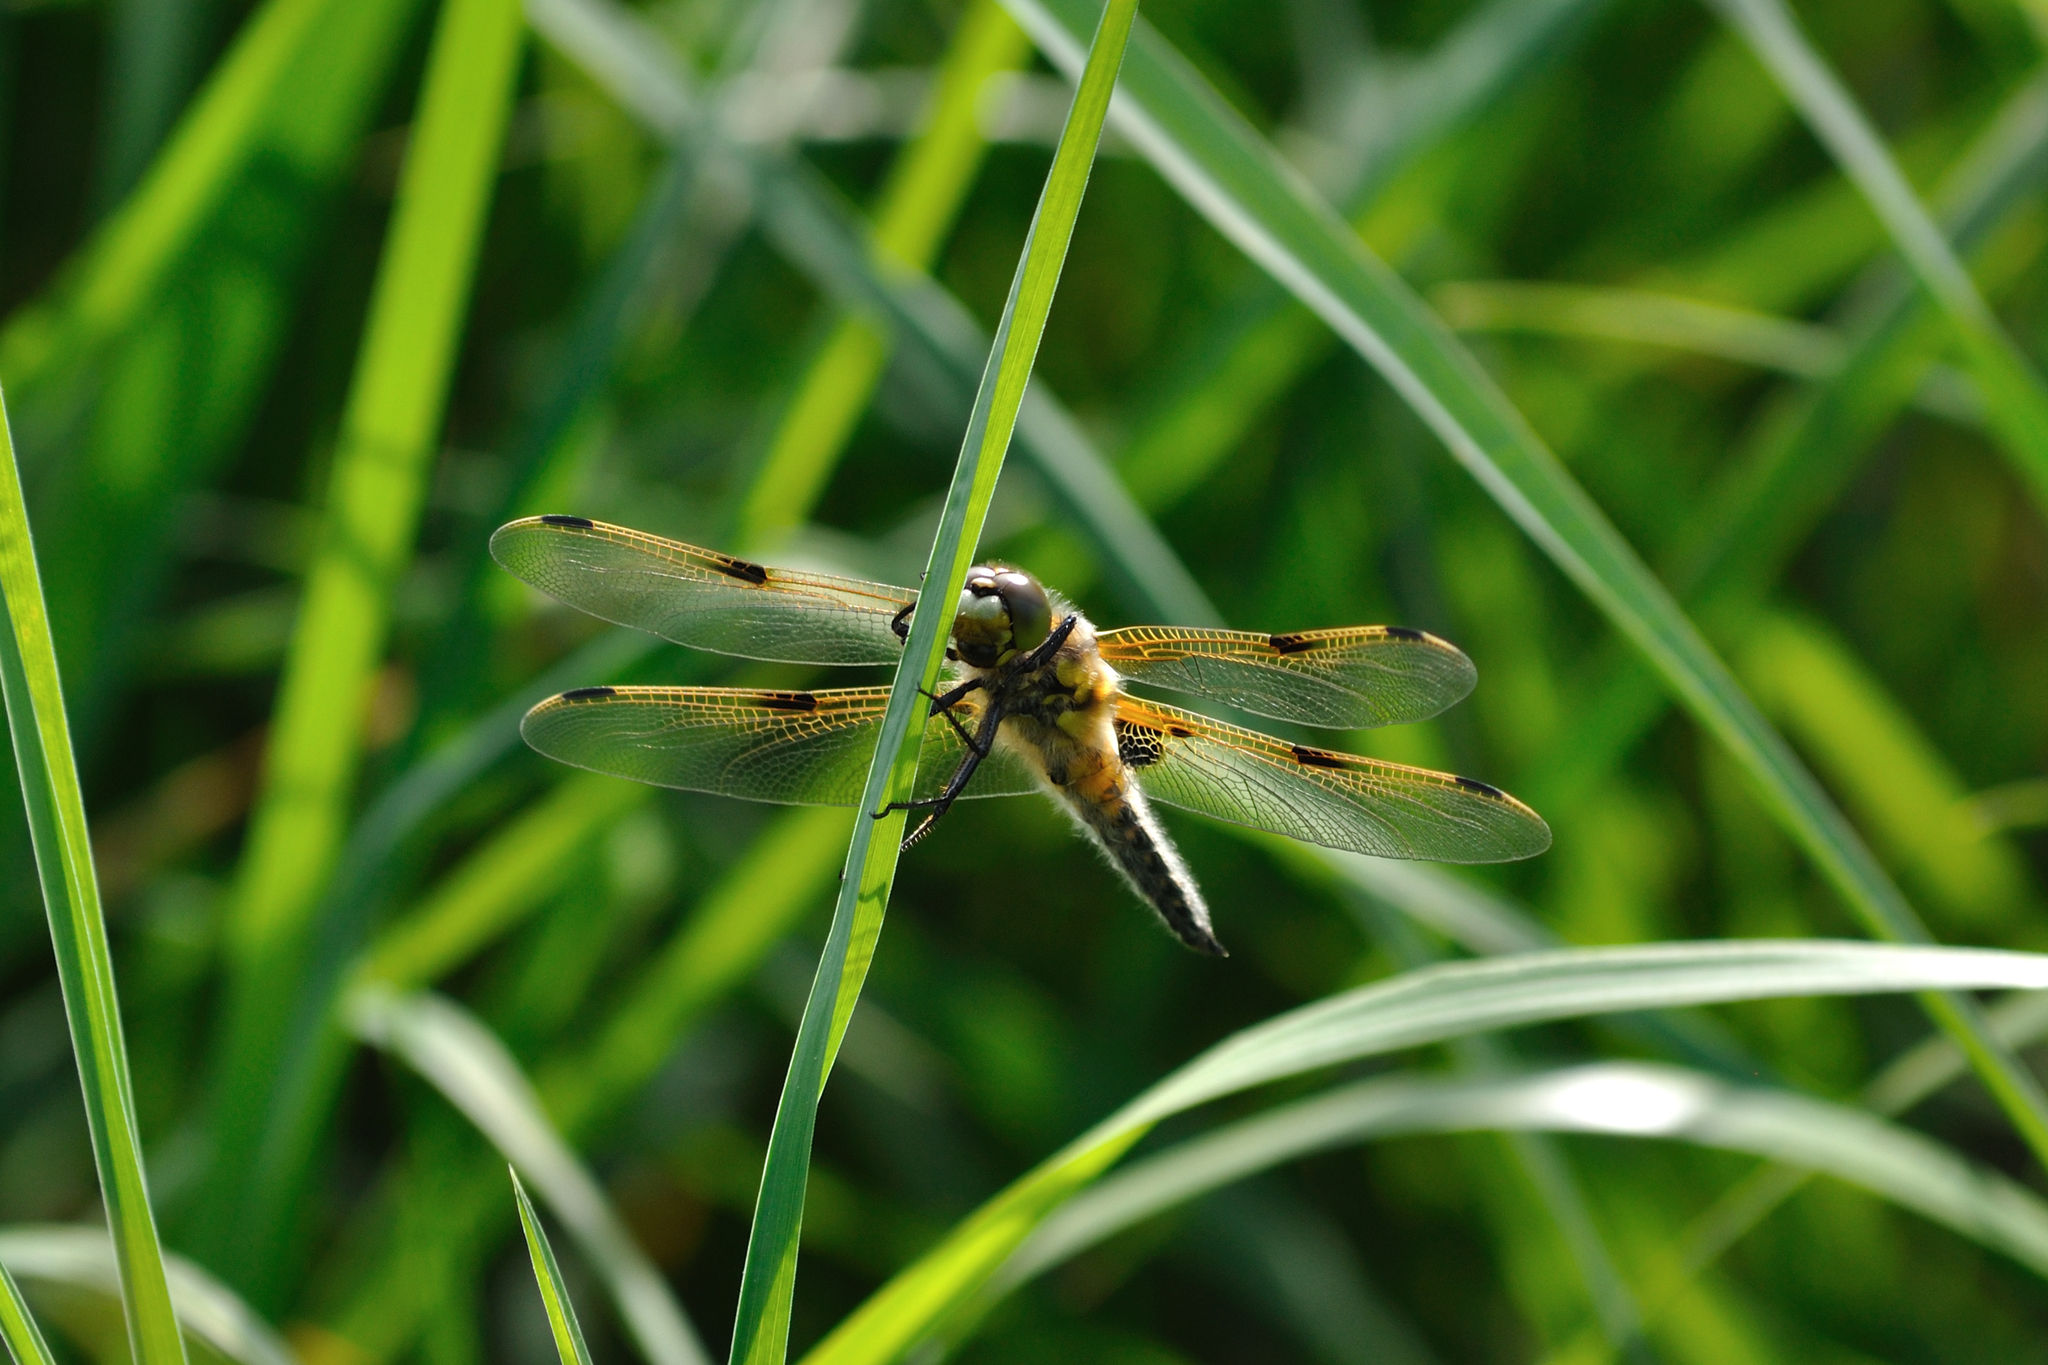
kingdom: Animalia
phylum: Arthropoda
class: Insecta
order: Odonata
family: Libellulidae
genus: Libellula
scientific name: Libellula quadrimaculata
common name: Four-spotted chaser
